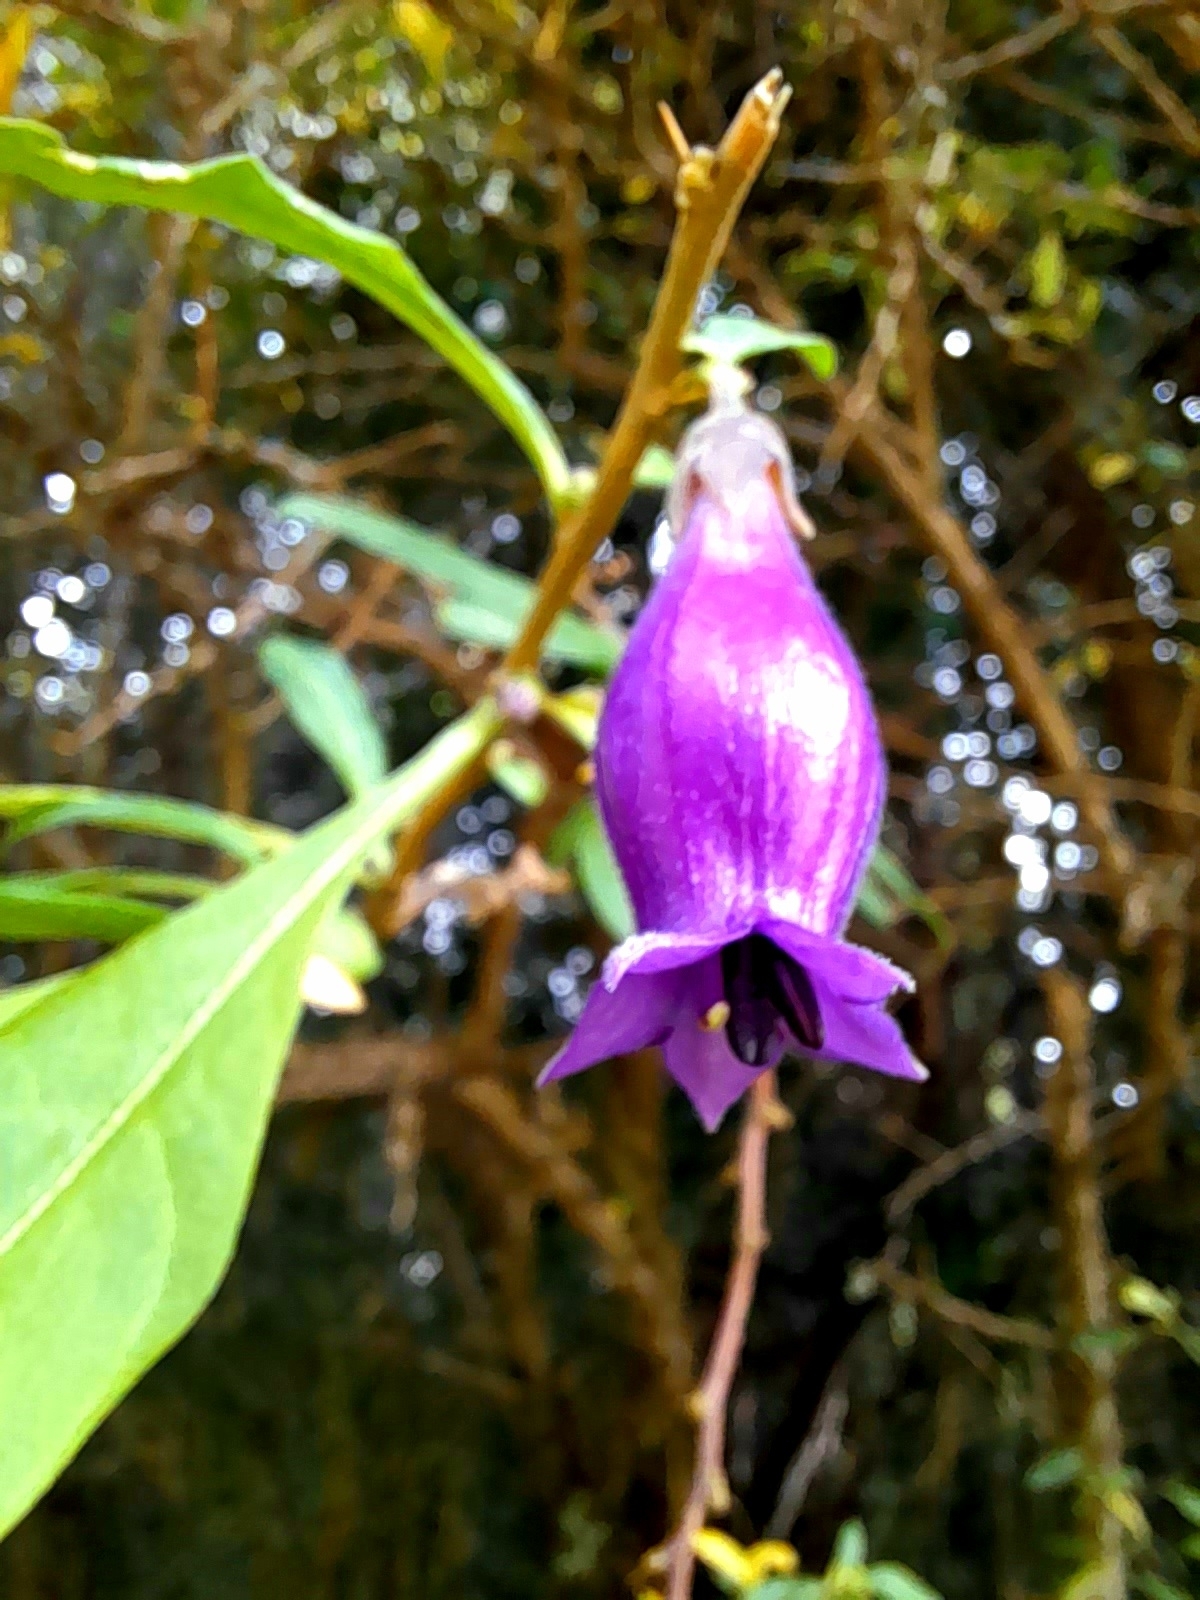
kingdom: Plantae
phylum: Tracheophyta
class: Magnoliopsida
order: Solanales
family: Solanaceae
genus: Latua
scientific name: Latua pubiflora
